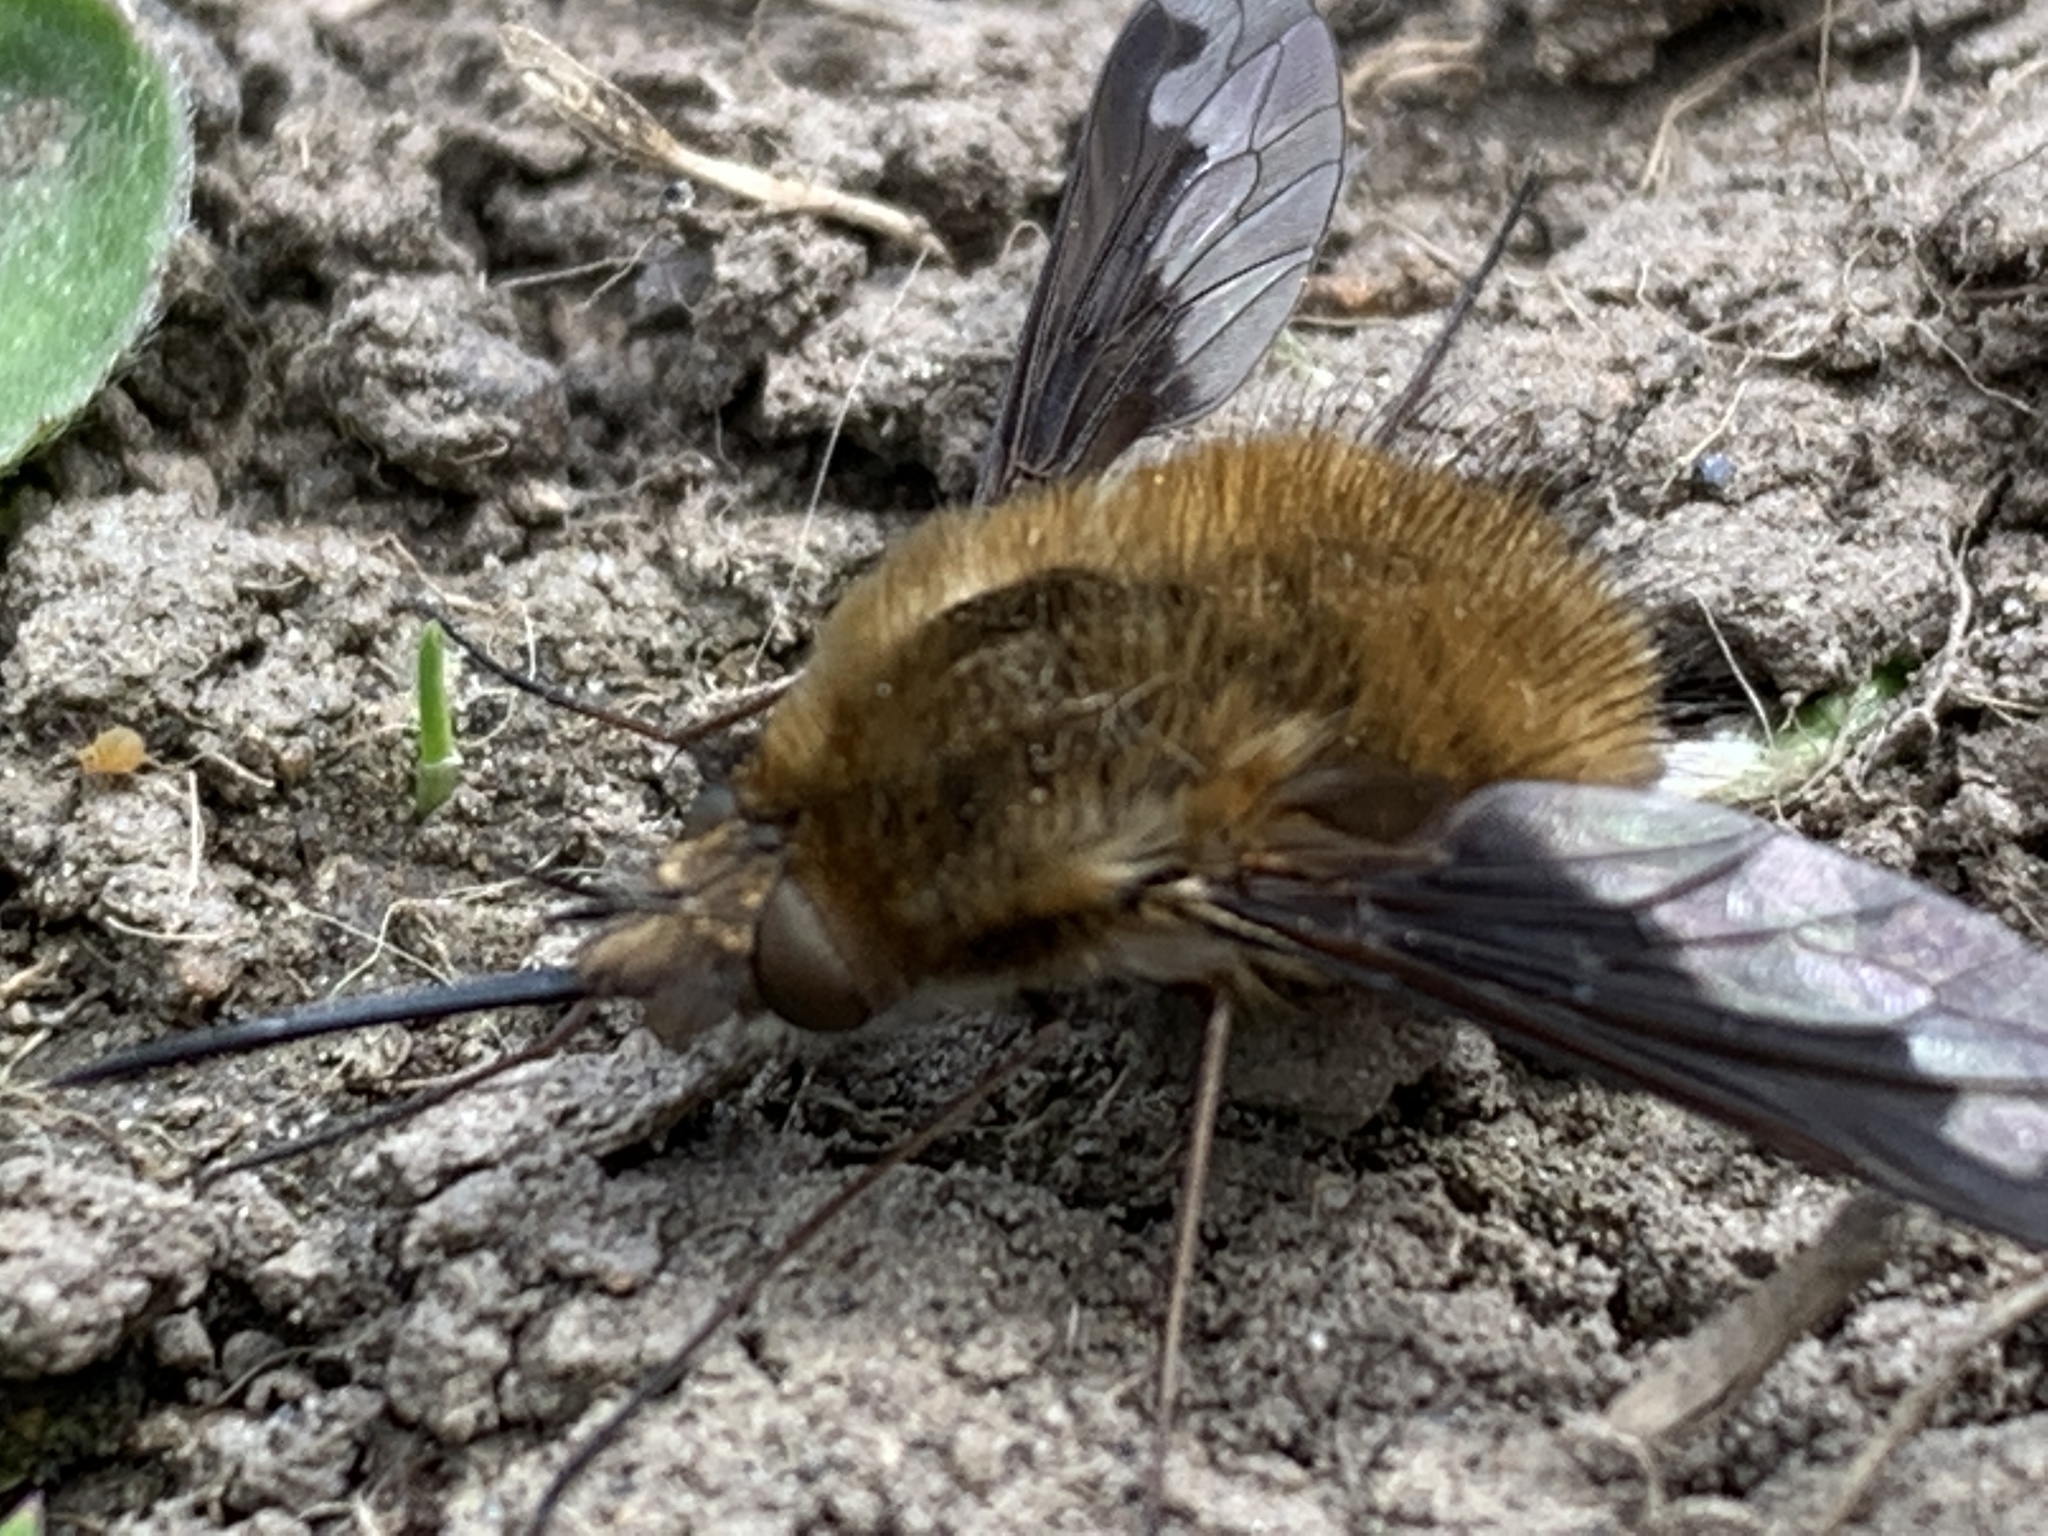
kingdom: Animalia
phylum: Arthropoda
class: Insecta
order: Diptera
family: Bombyliidae
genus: Bombylius
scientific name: Bombylius major
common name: Bee fly
